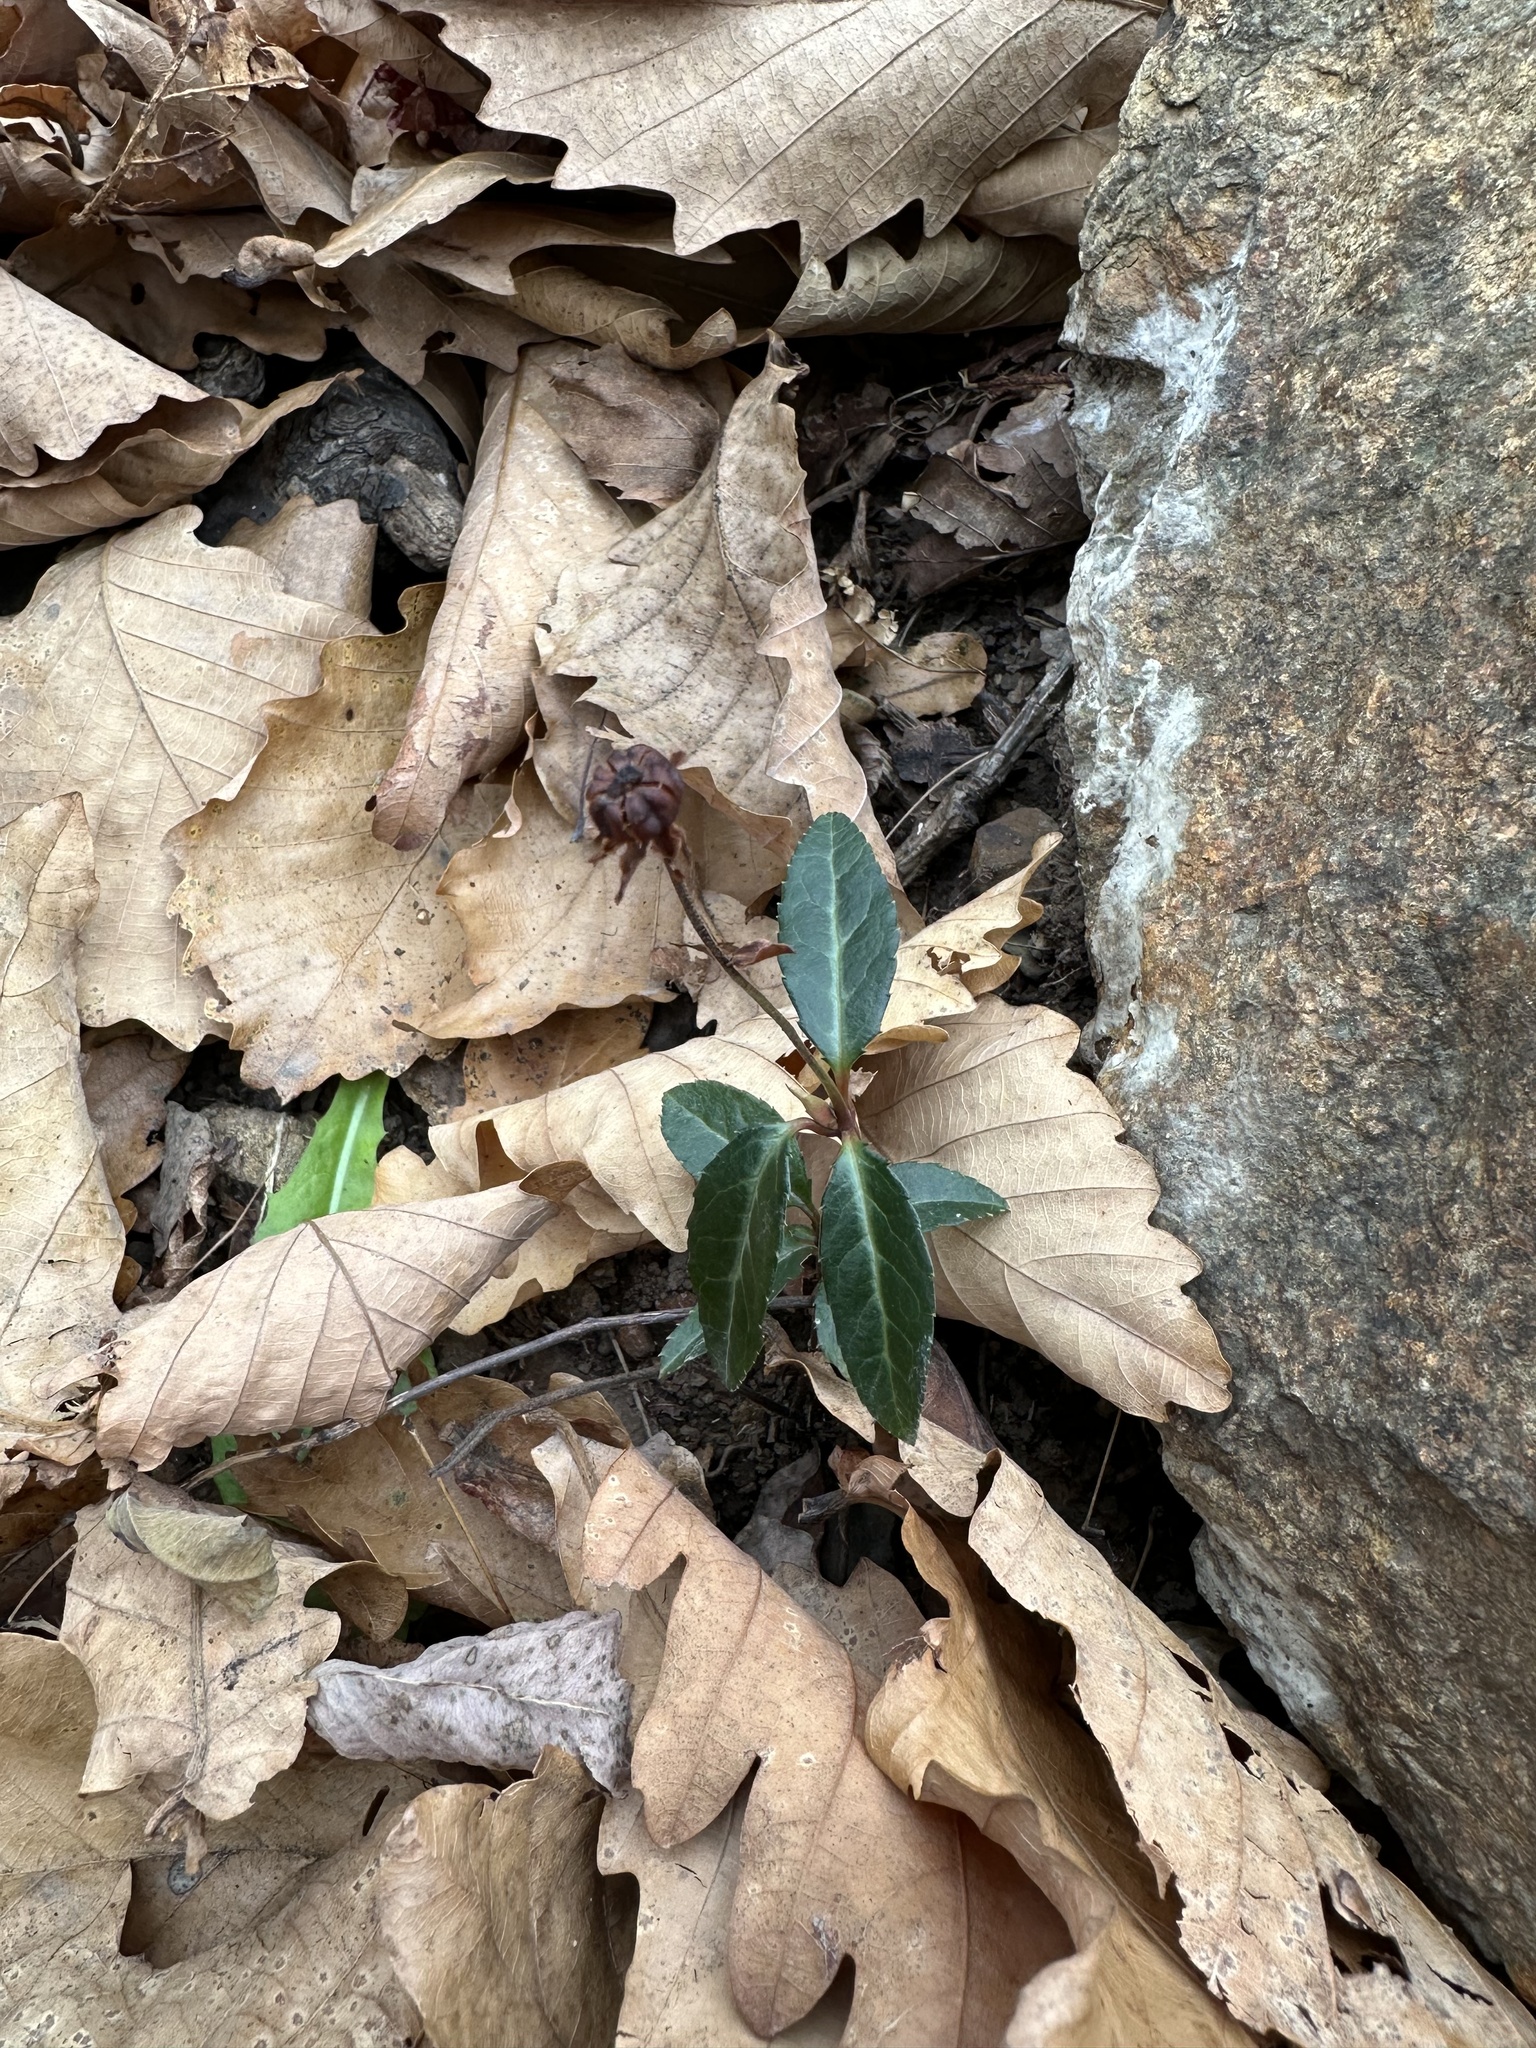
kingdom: Plantae
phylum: Tracheophyta
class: Magnoliopsida
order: Ericales
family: Ericaceae
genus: Chimaphila
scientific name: Chimaphila japonica
